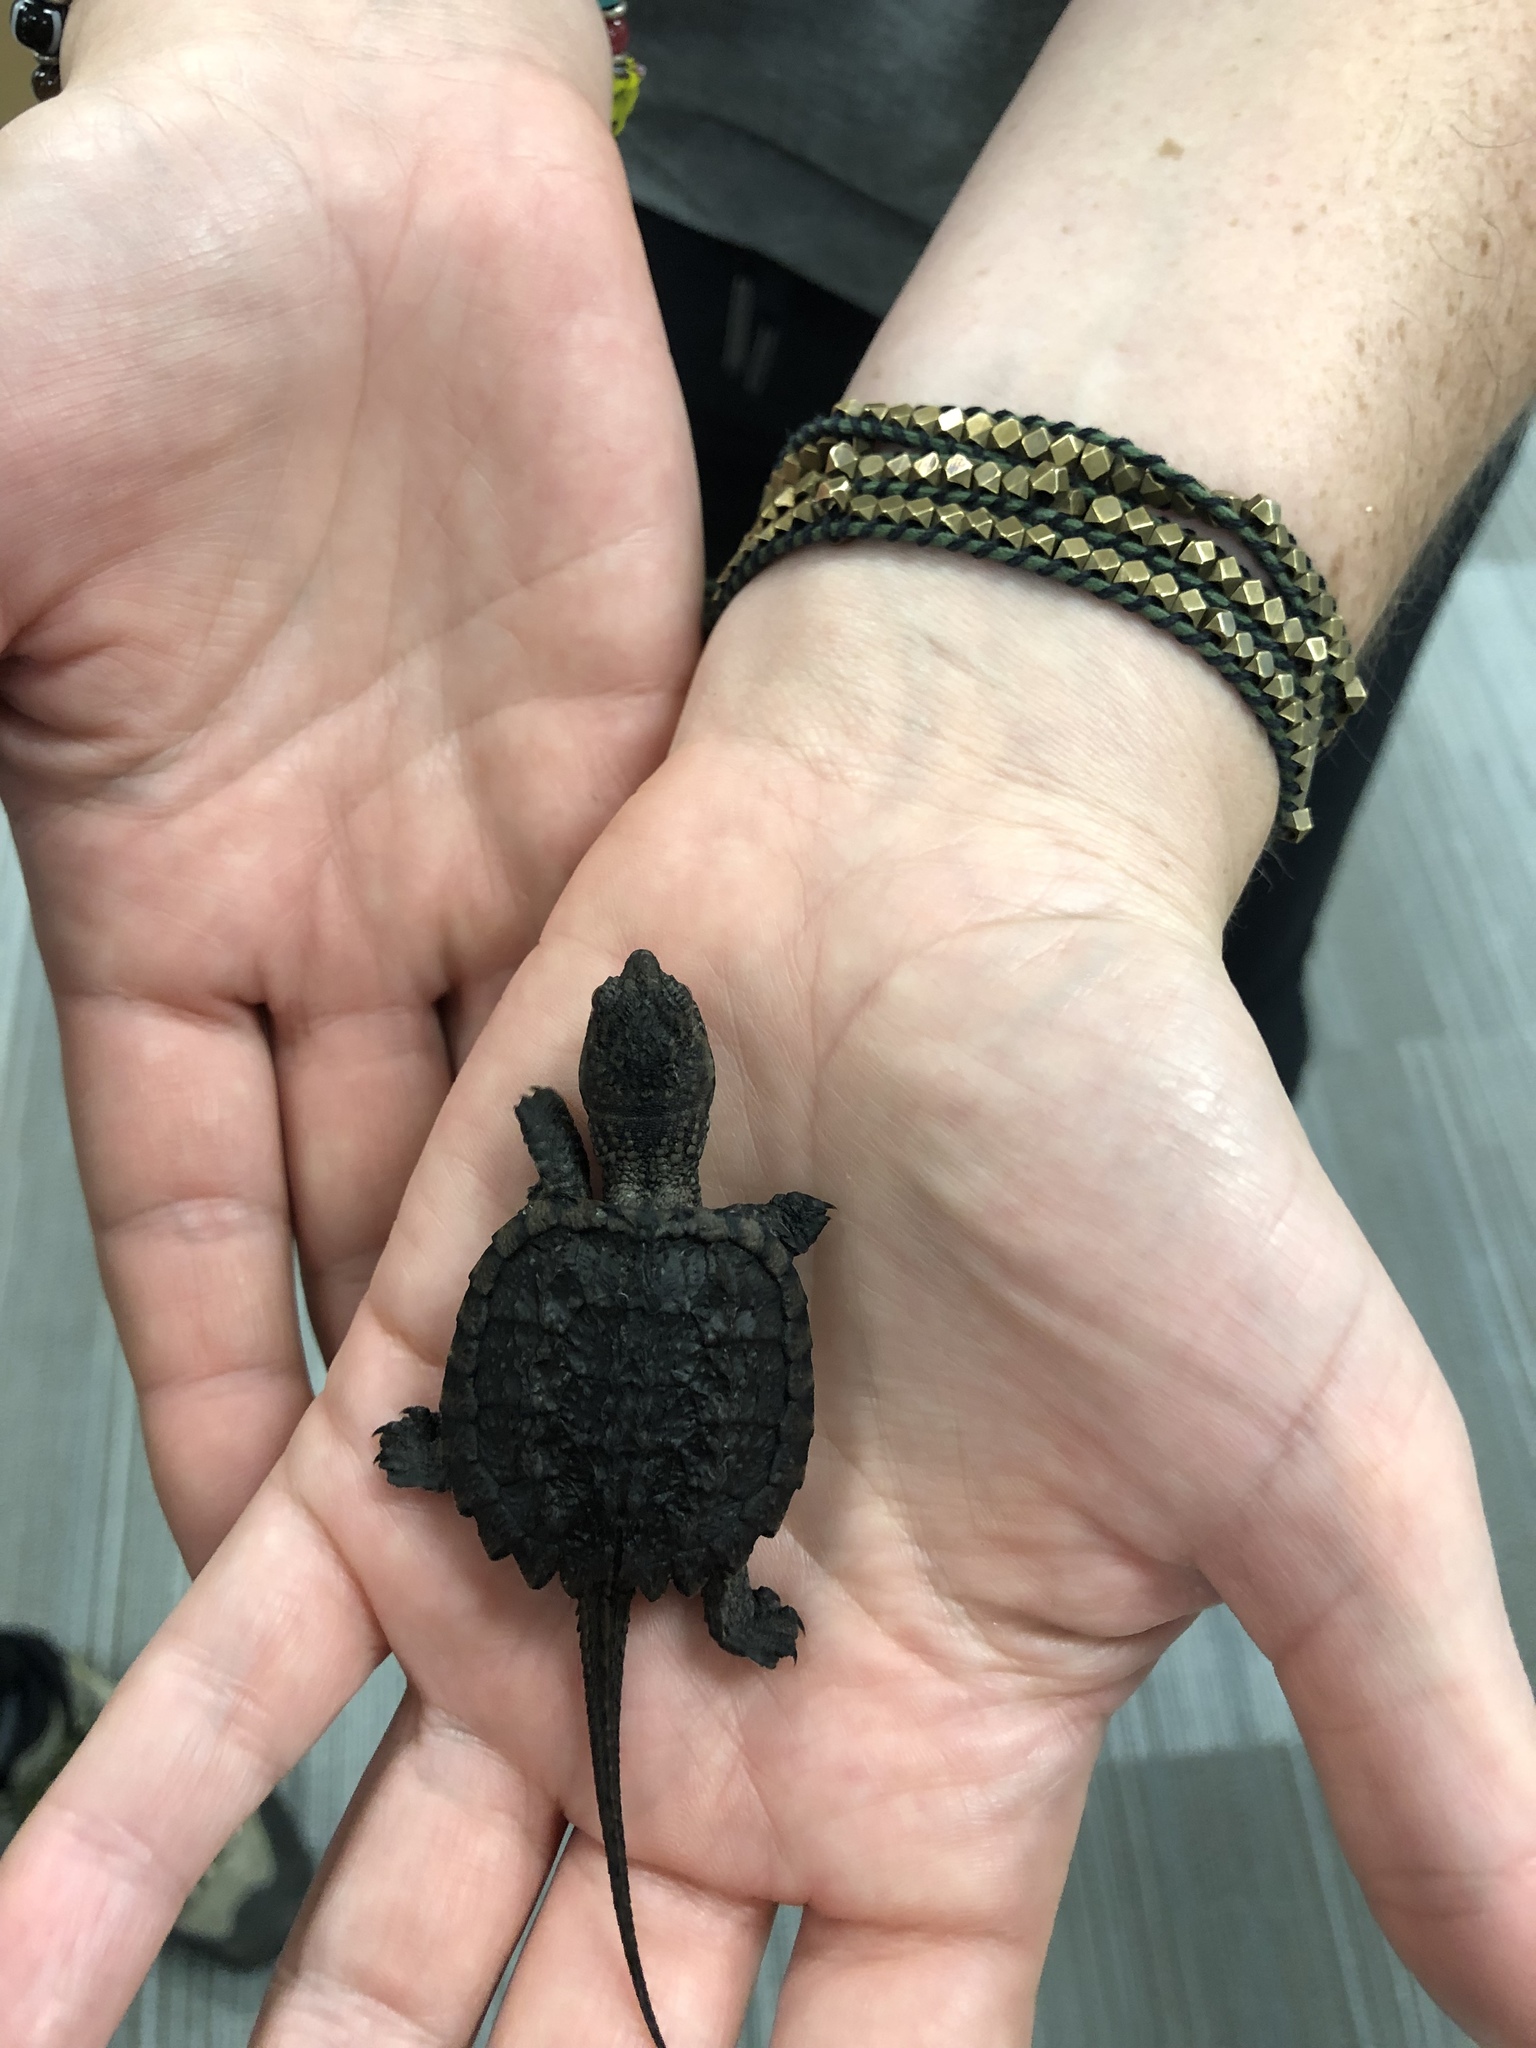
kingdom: Animalia
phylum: Chordata
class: Testudines
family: Chelydridae
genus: Chelydra
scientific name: Chelydra serpentina
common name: Common snapping turtle
